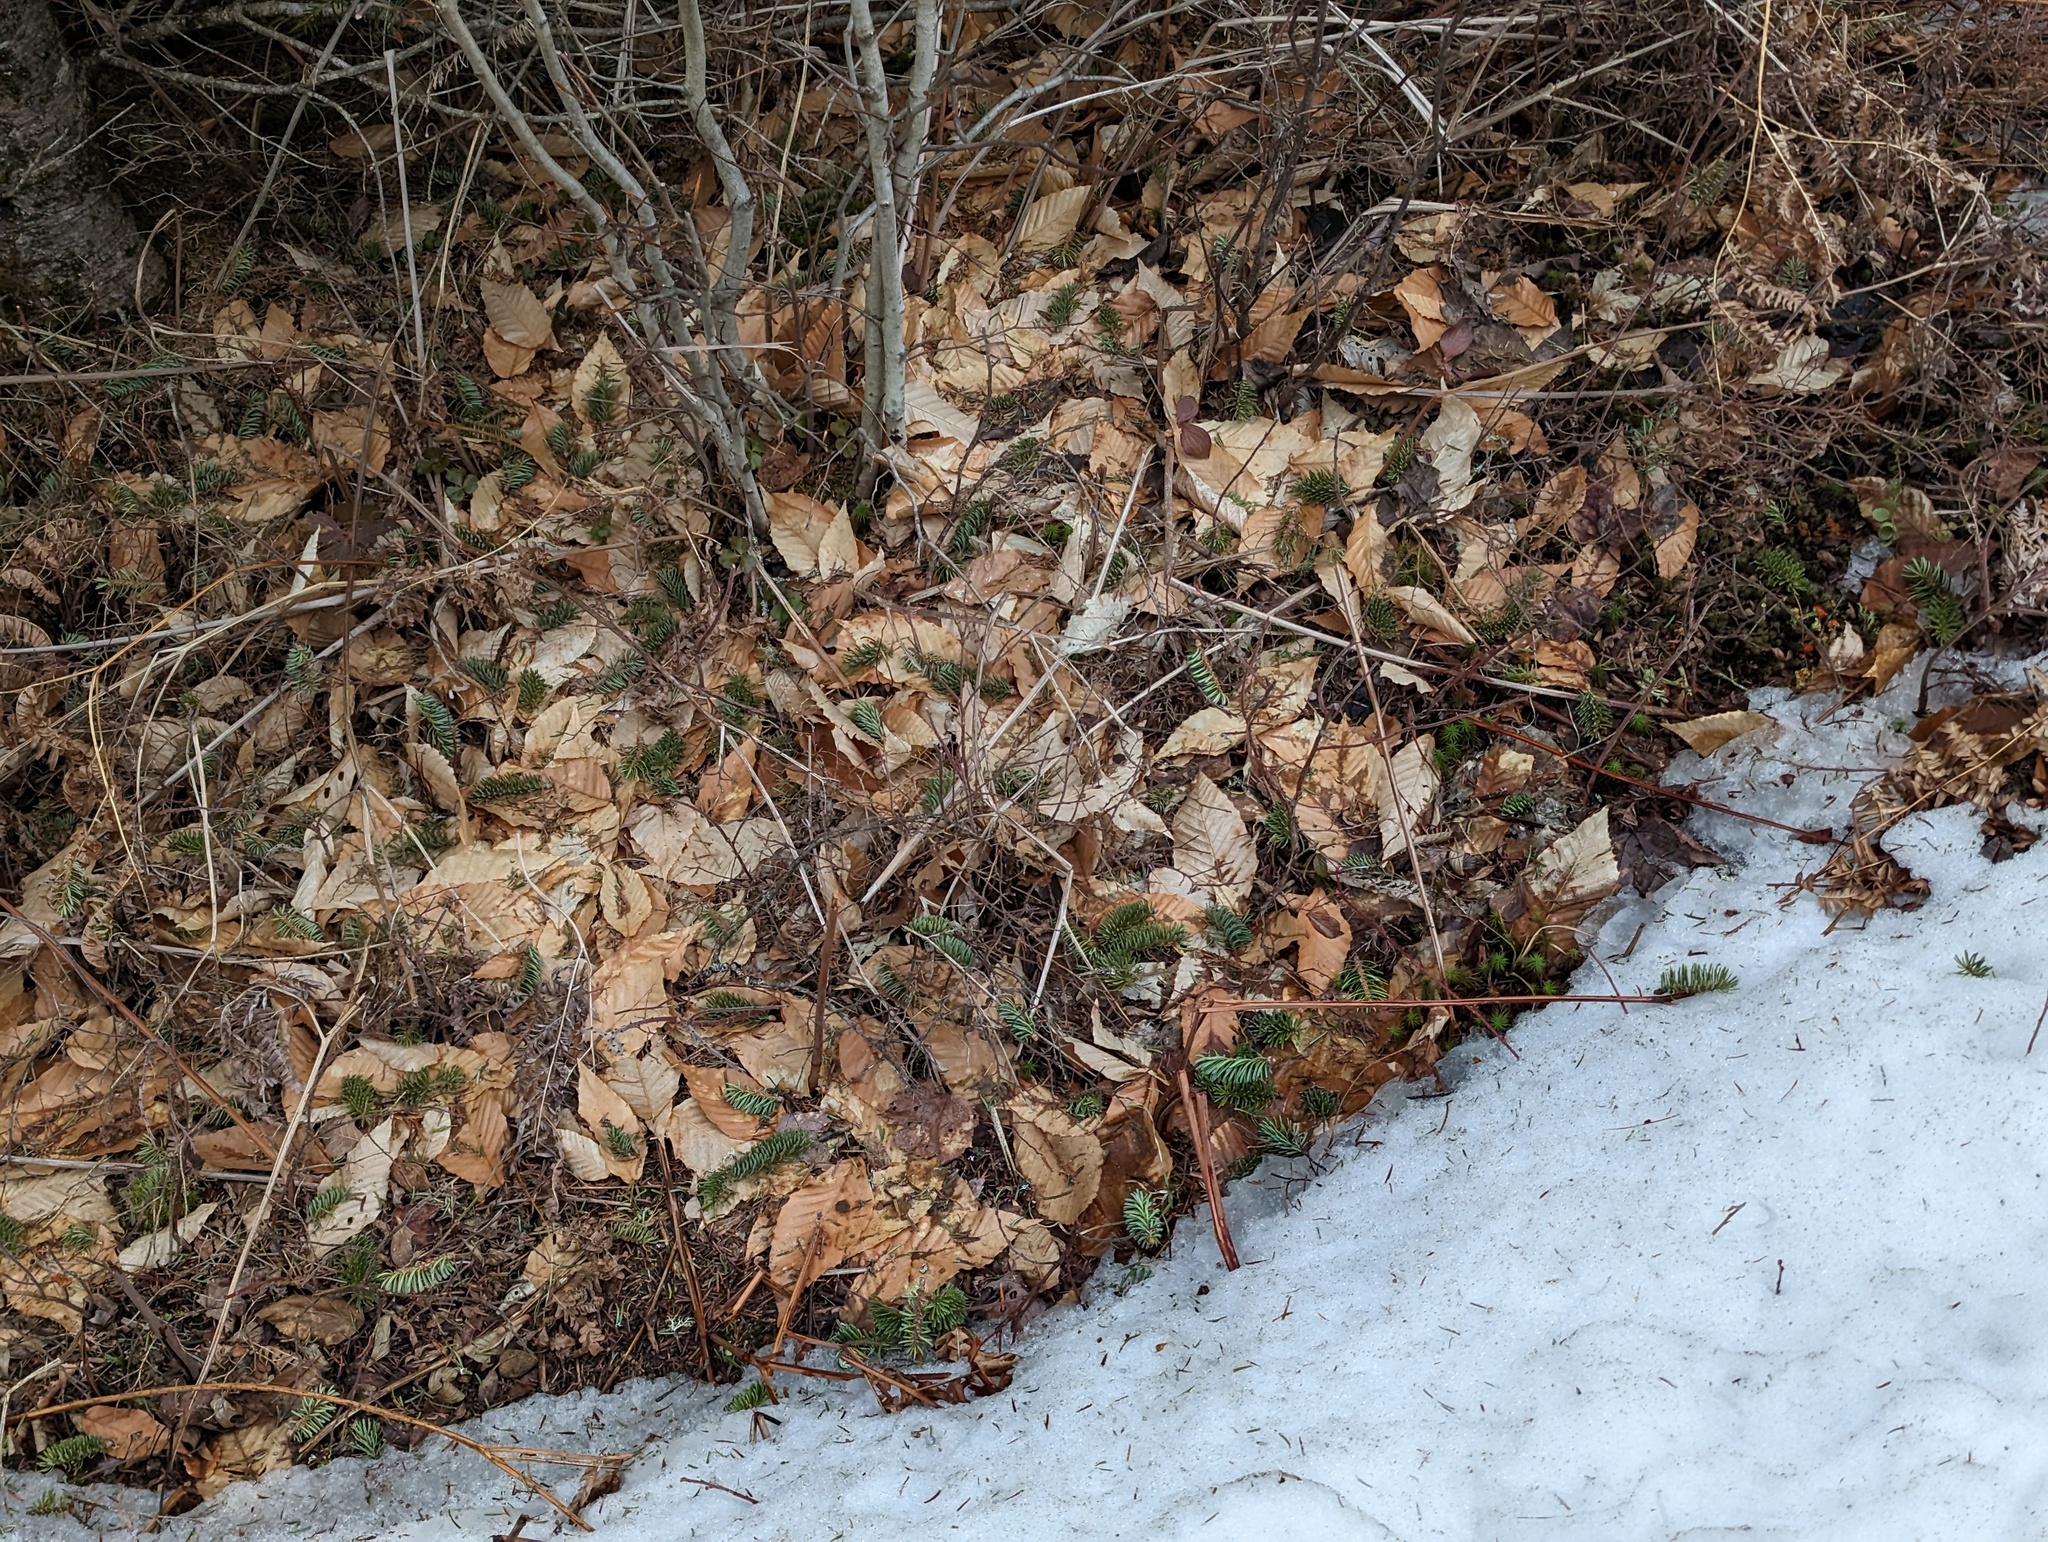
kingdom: Plantae
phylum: Tracheophyta
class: Magnoliopsida
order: Fagales
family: Fagaceae
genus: Fagus
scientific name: Fagus grandifolia
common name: American beech
